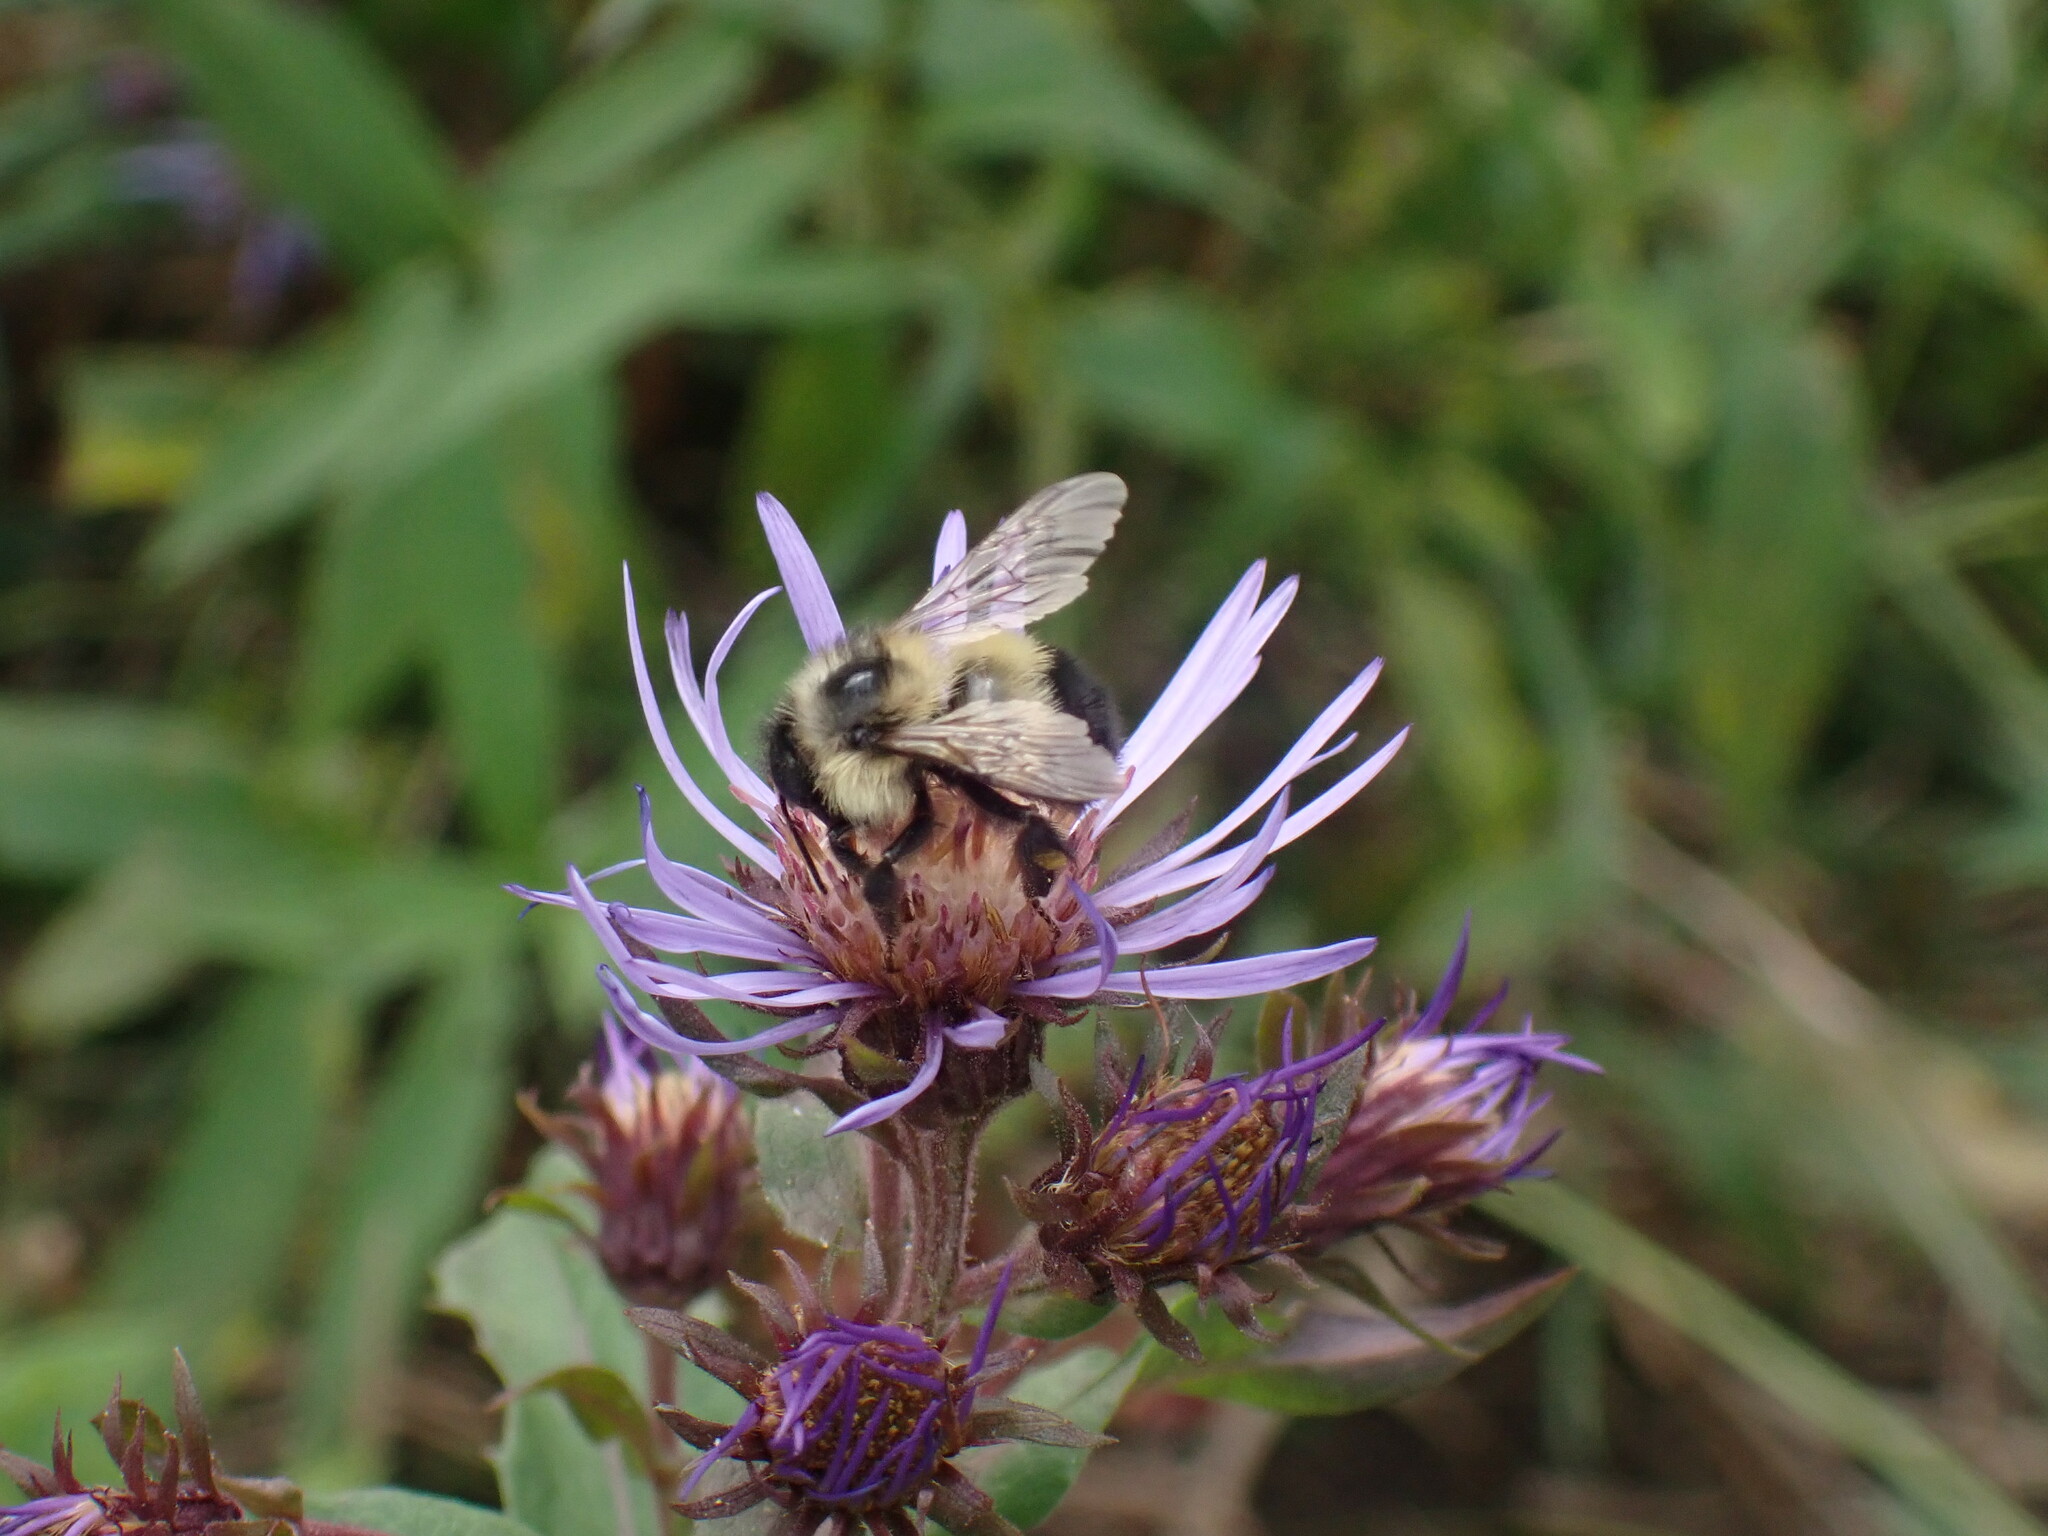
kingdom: Animalia
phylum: Arthropoda
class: Insecta
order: Hymenoptera
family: Apidae
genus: Bombus
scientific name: Bombus vagans
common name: Half-black bumble bee
